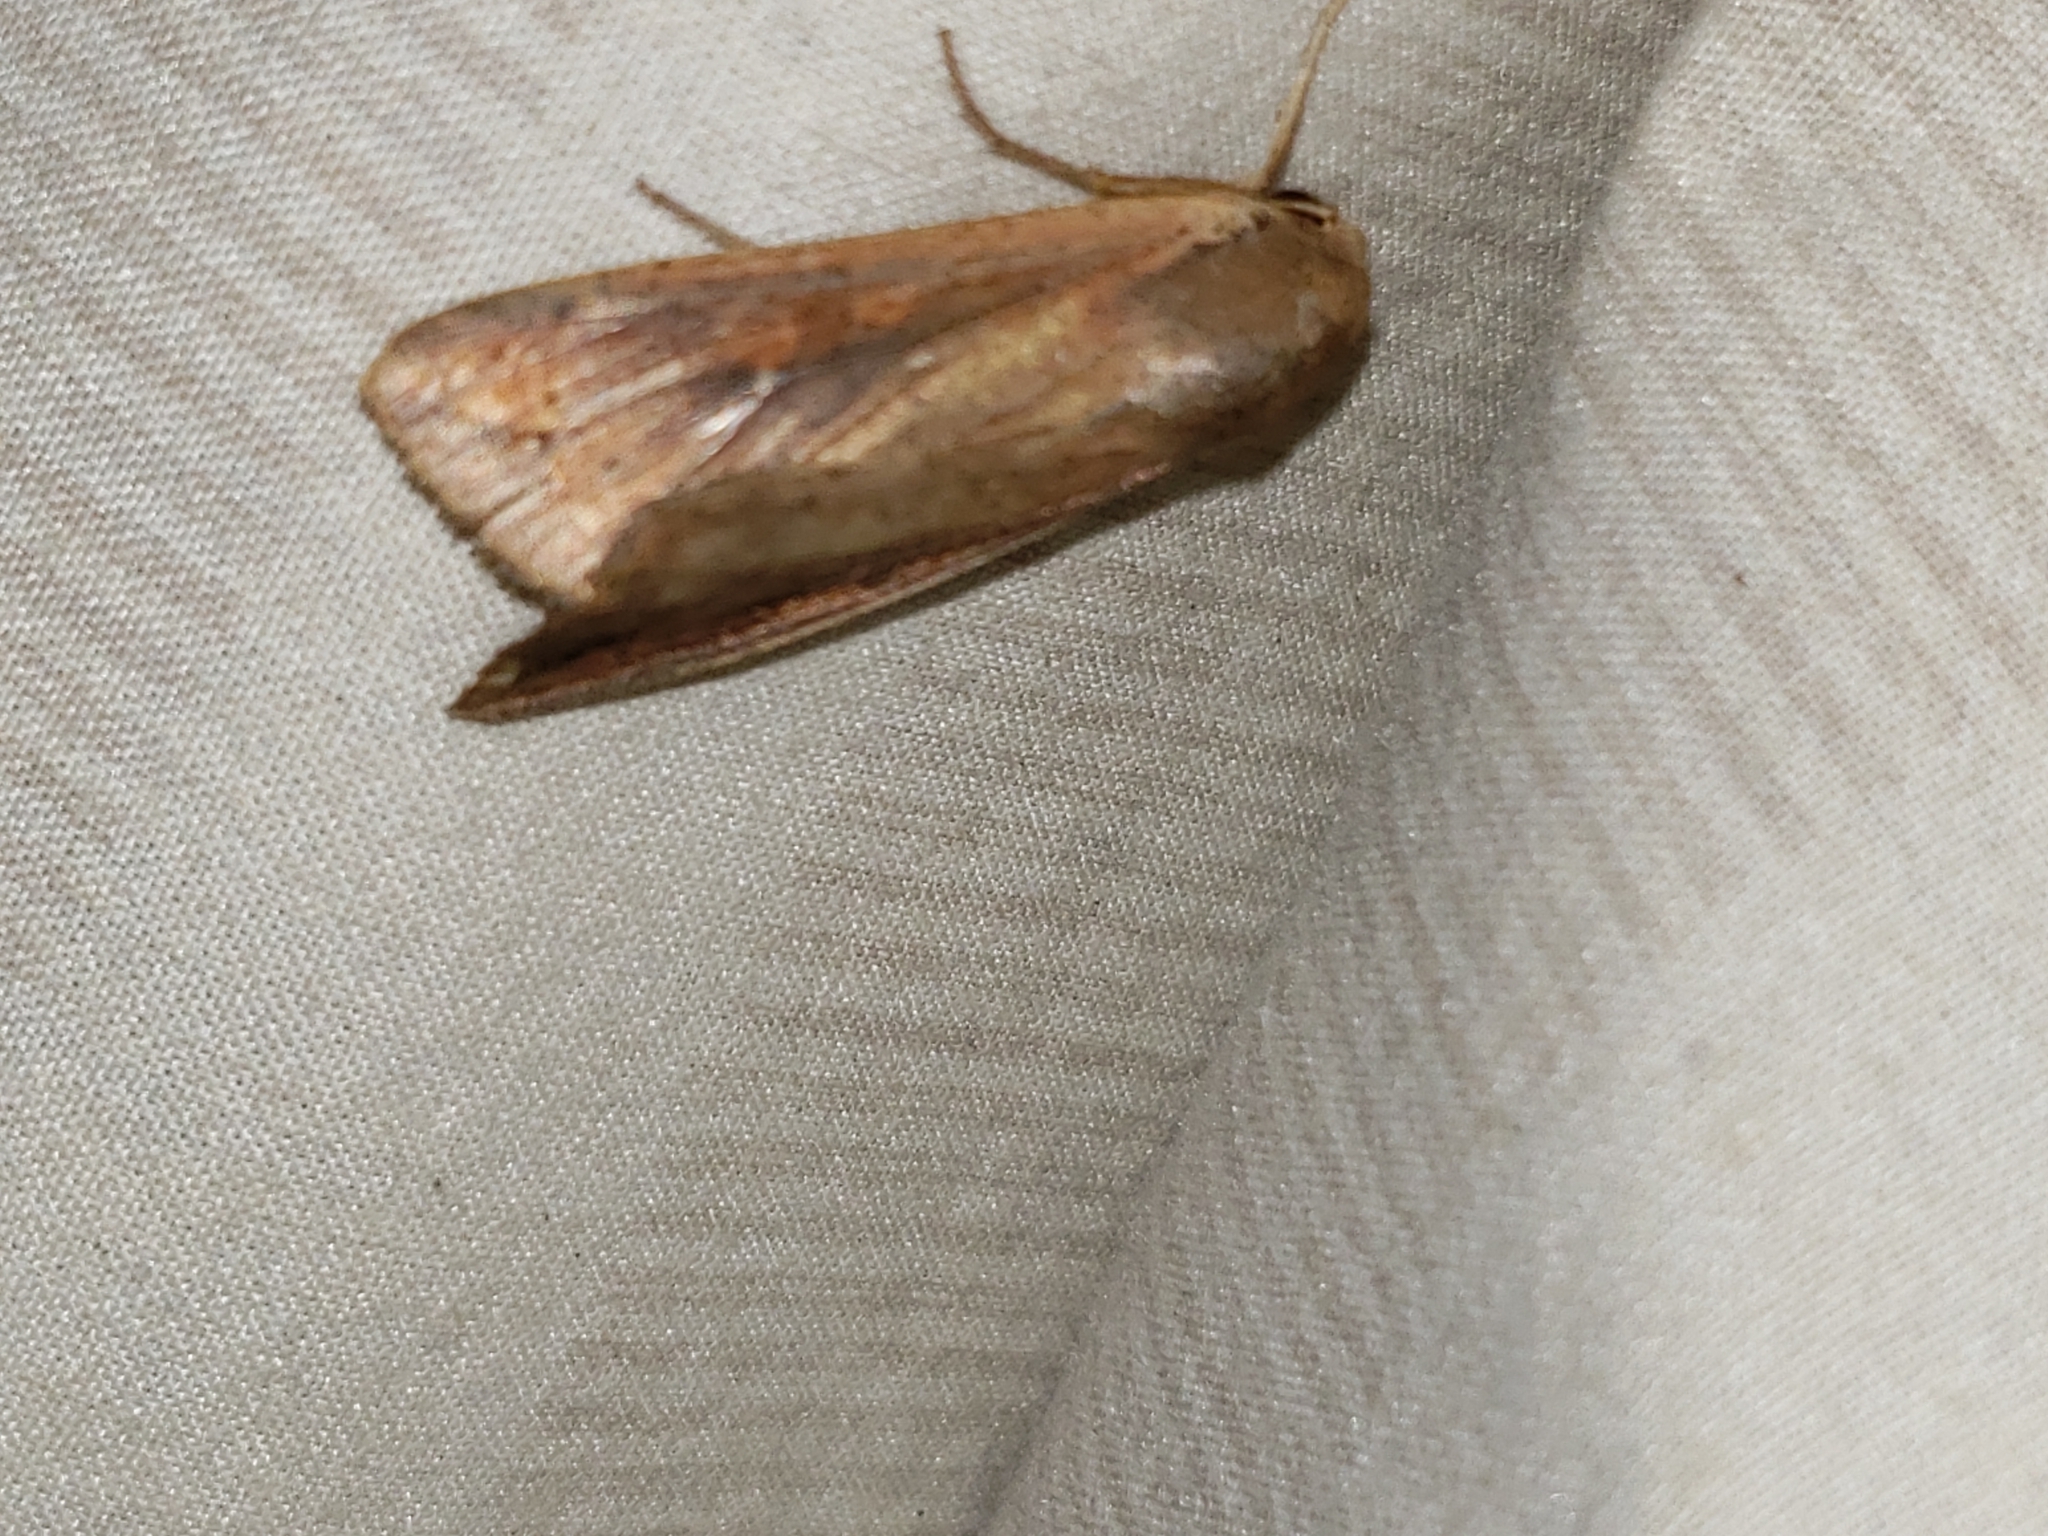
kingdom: Animalia
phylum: Arthropoda
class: Insecta
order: Lepidoptera
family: Noctuidae
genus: Mythimna
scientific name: Mythimna unipuncta
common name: White-speck
